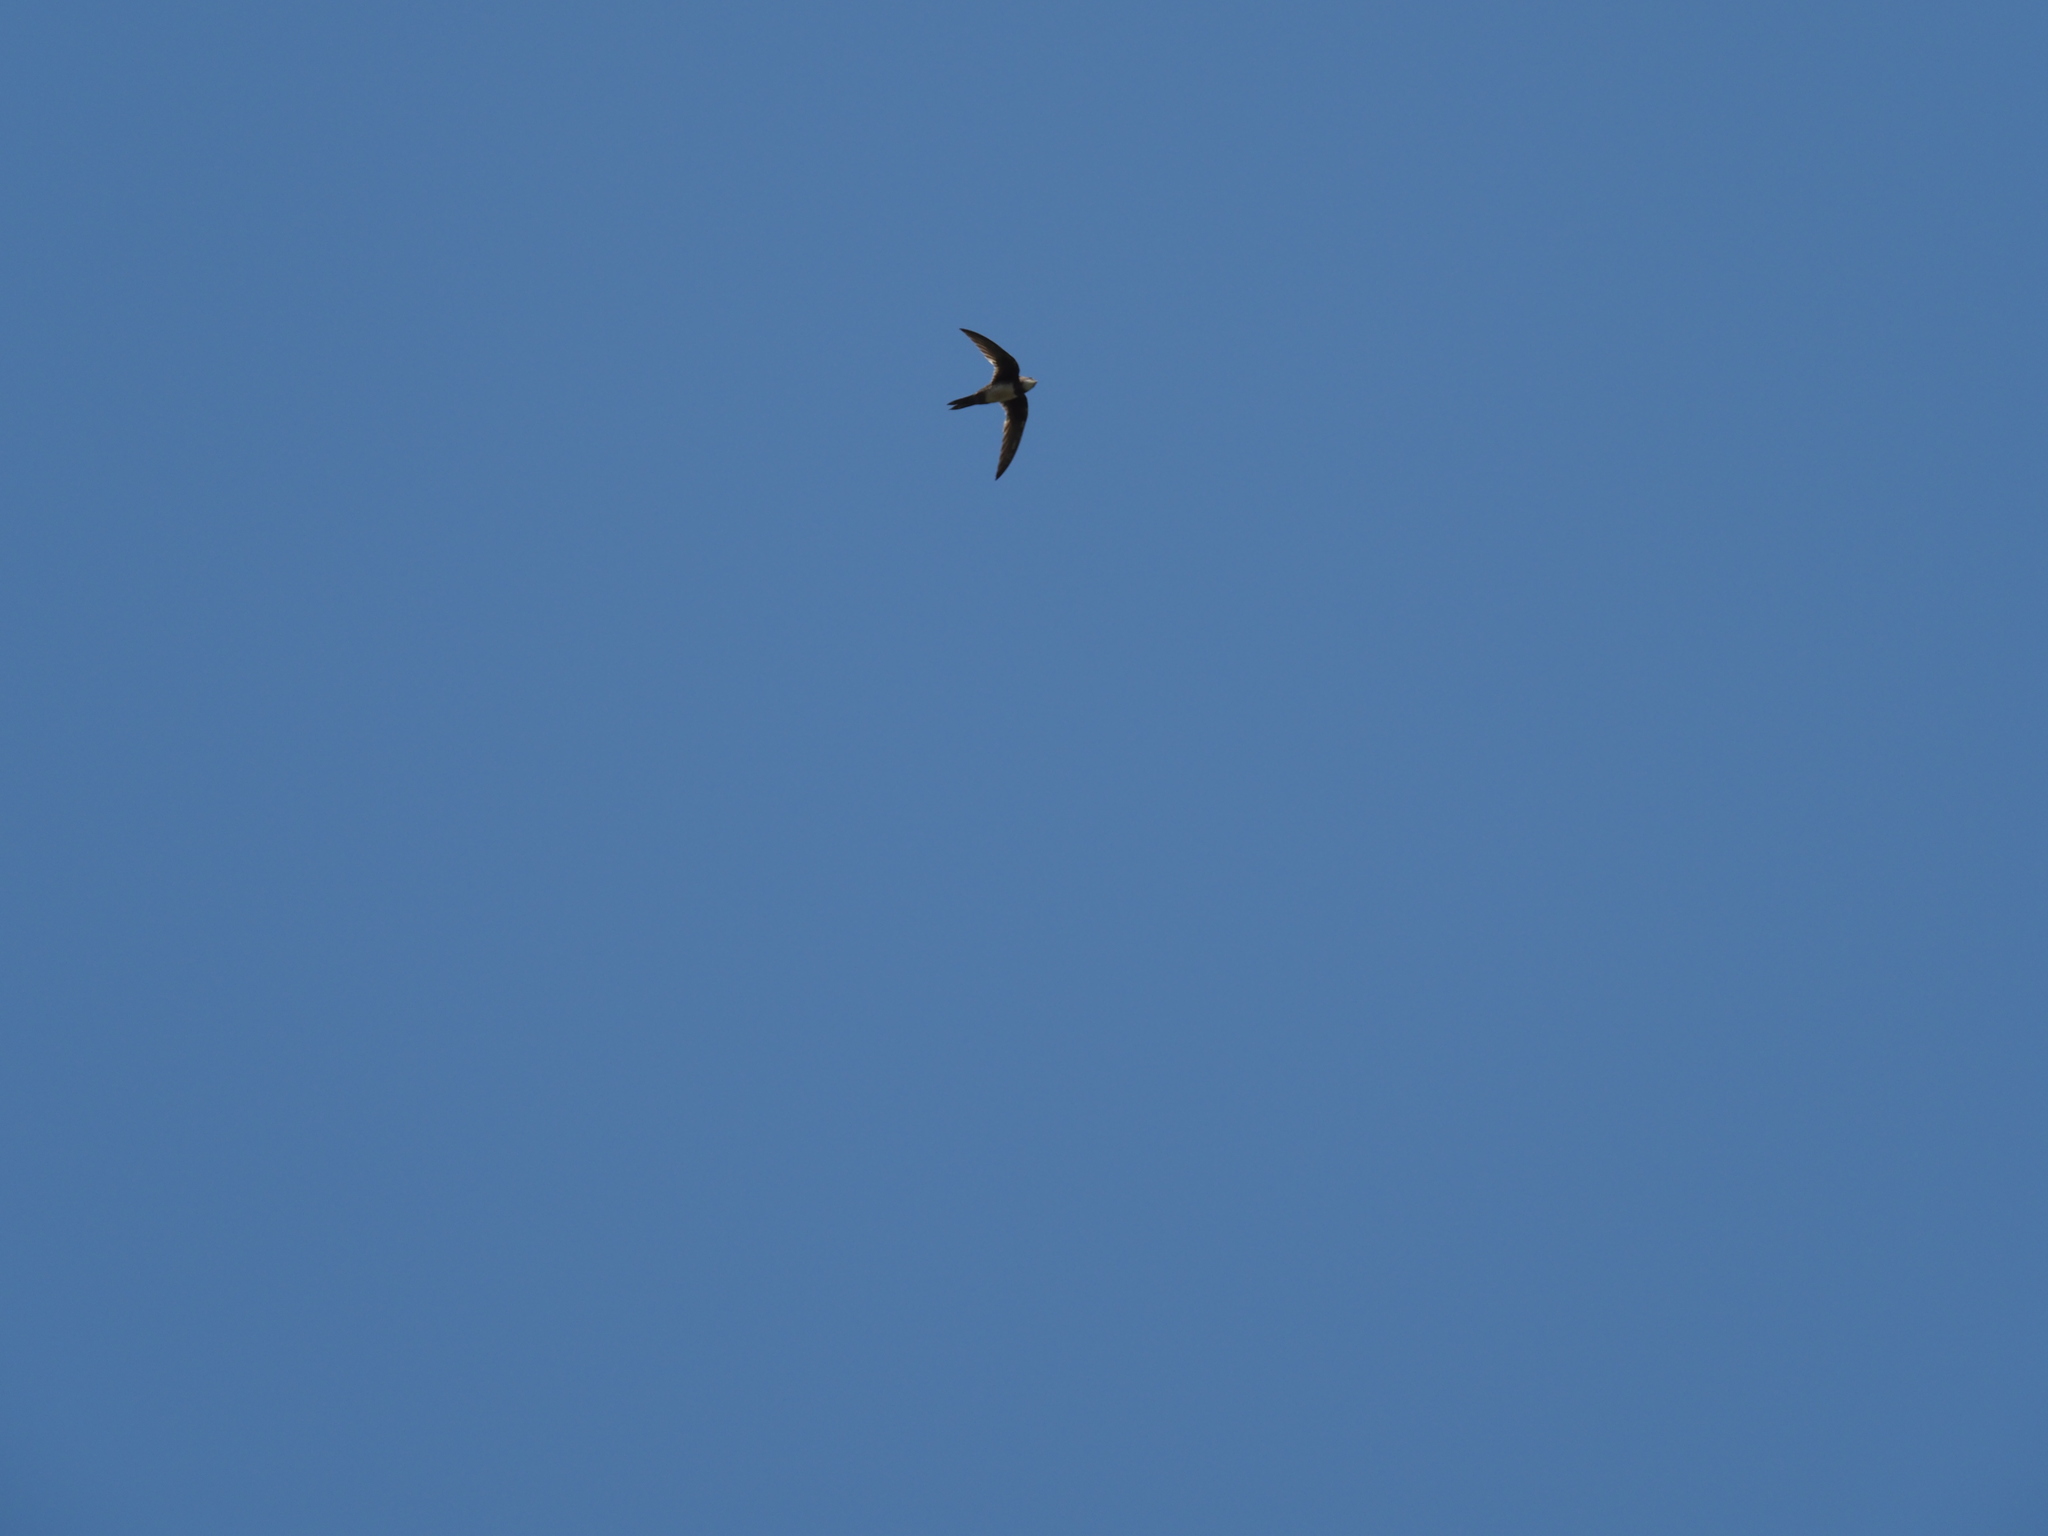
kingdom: Animalia
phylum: Chordata
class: Aves
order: Apodiformes
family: Apodidae
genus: Tachymarptis
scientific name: Tachymarptis melba
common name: Alpine swift
